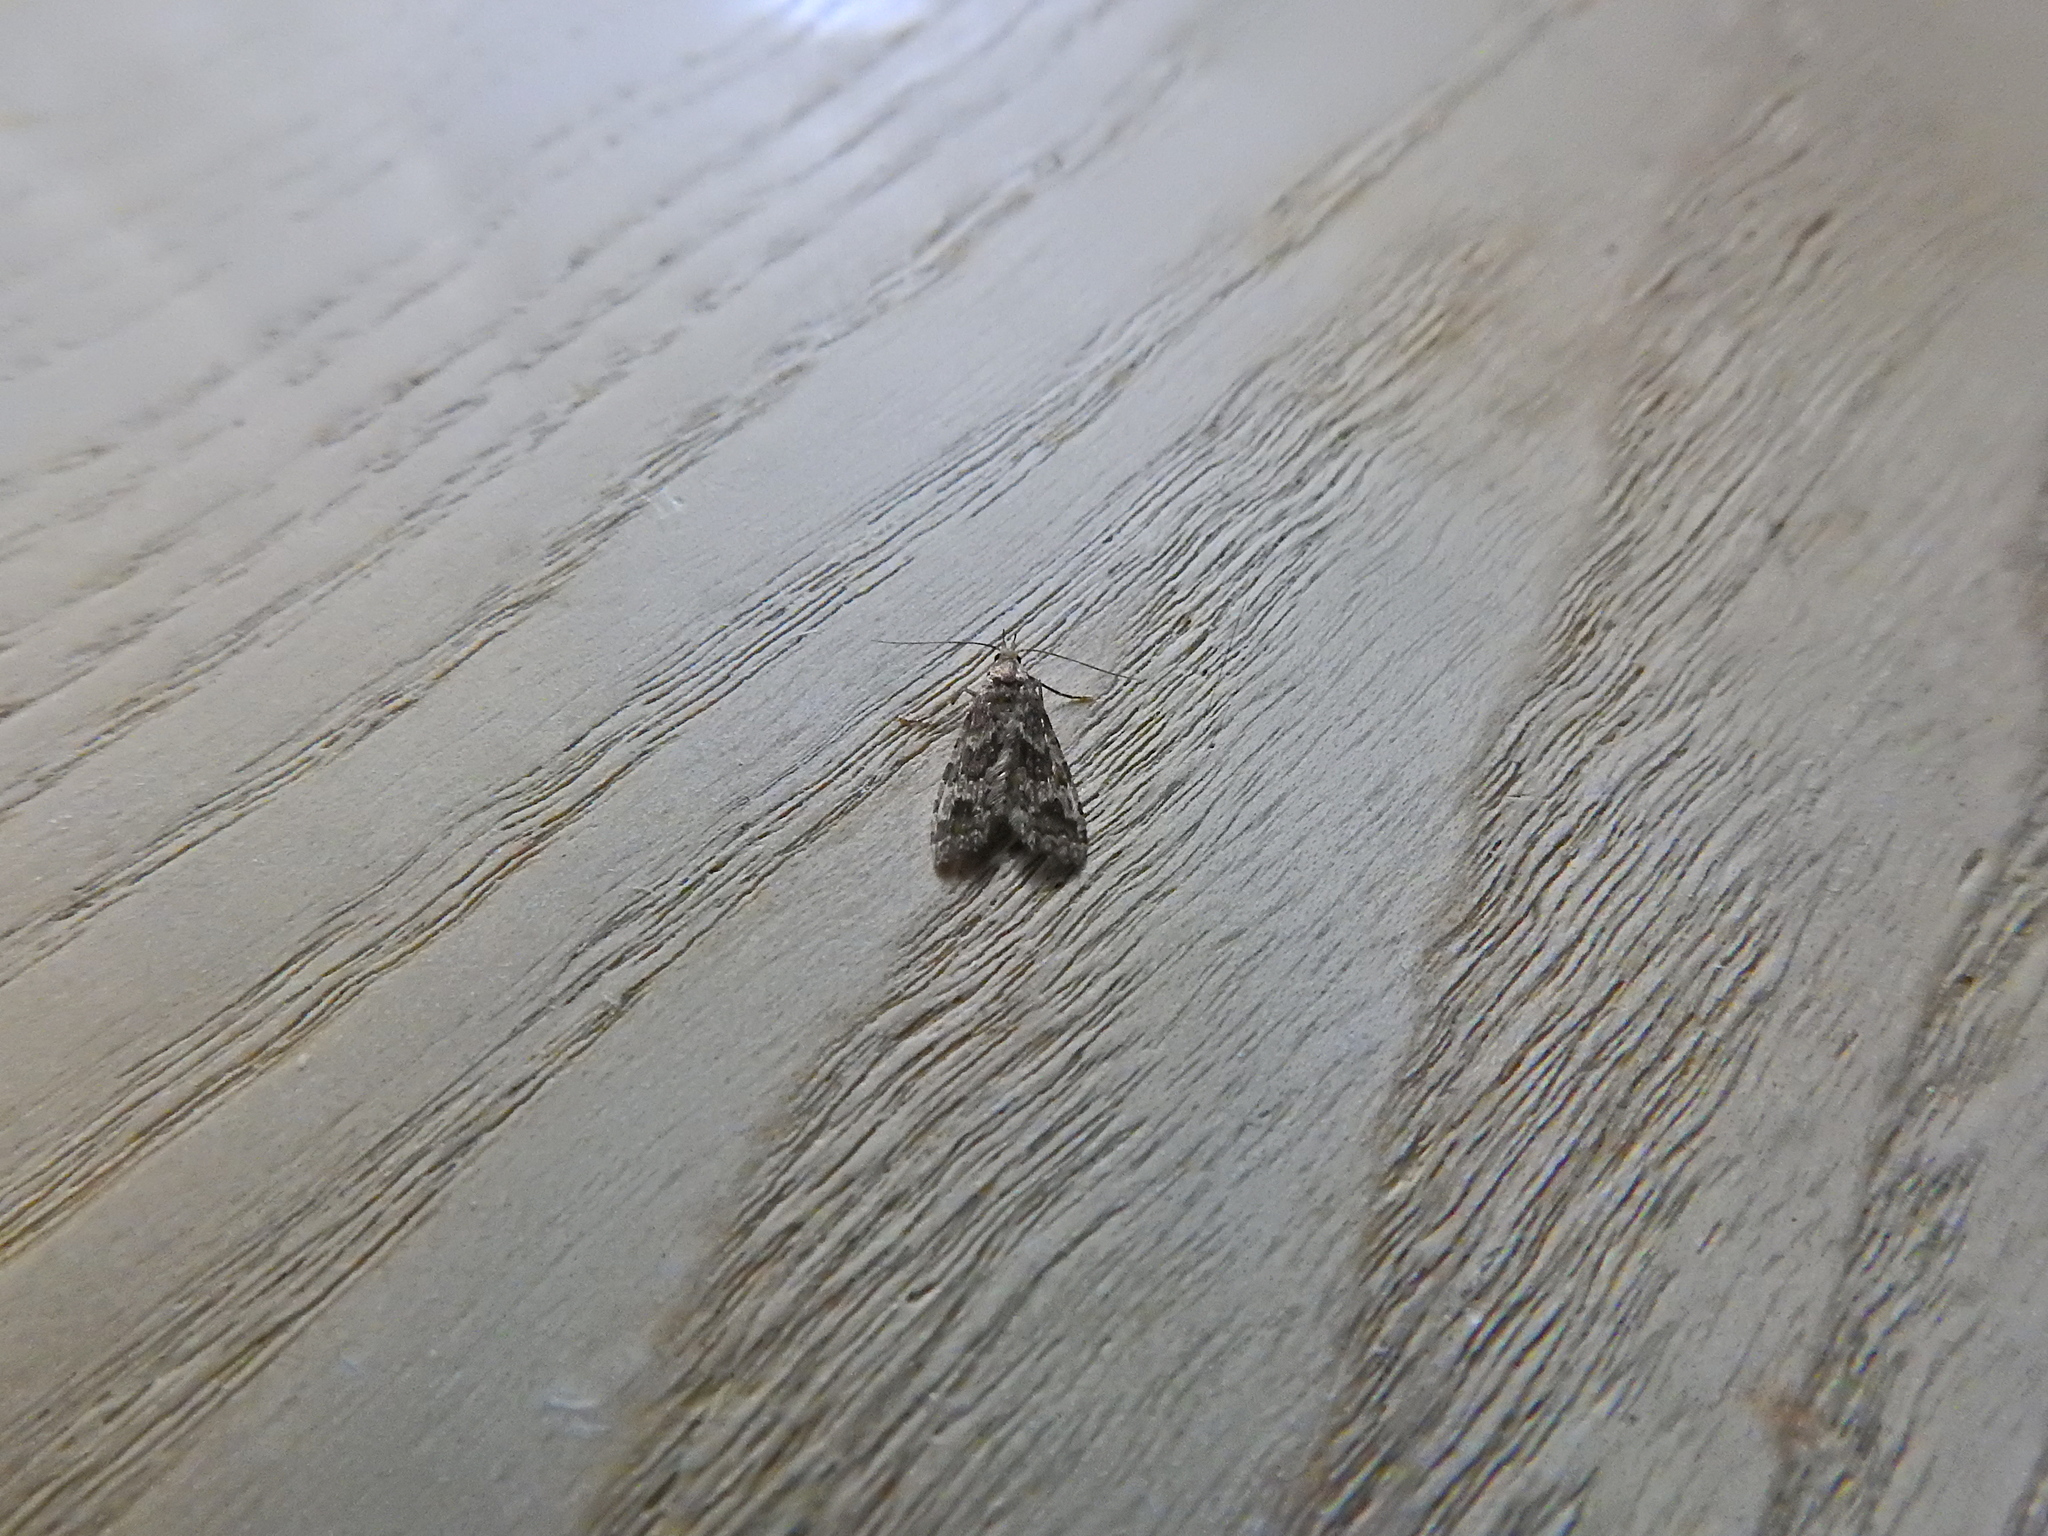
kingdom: Animalia
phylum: Arthropoda
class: Insecta
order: Lepidoptera
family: Alucitidae
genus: Alucita
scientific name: Alucita hexadactyla
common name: Twenty-plume moth
